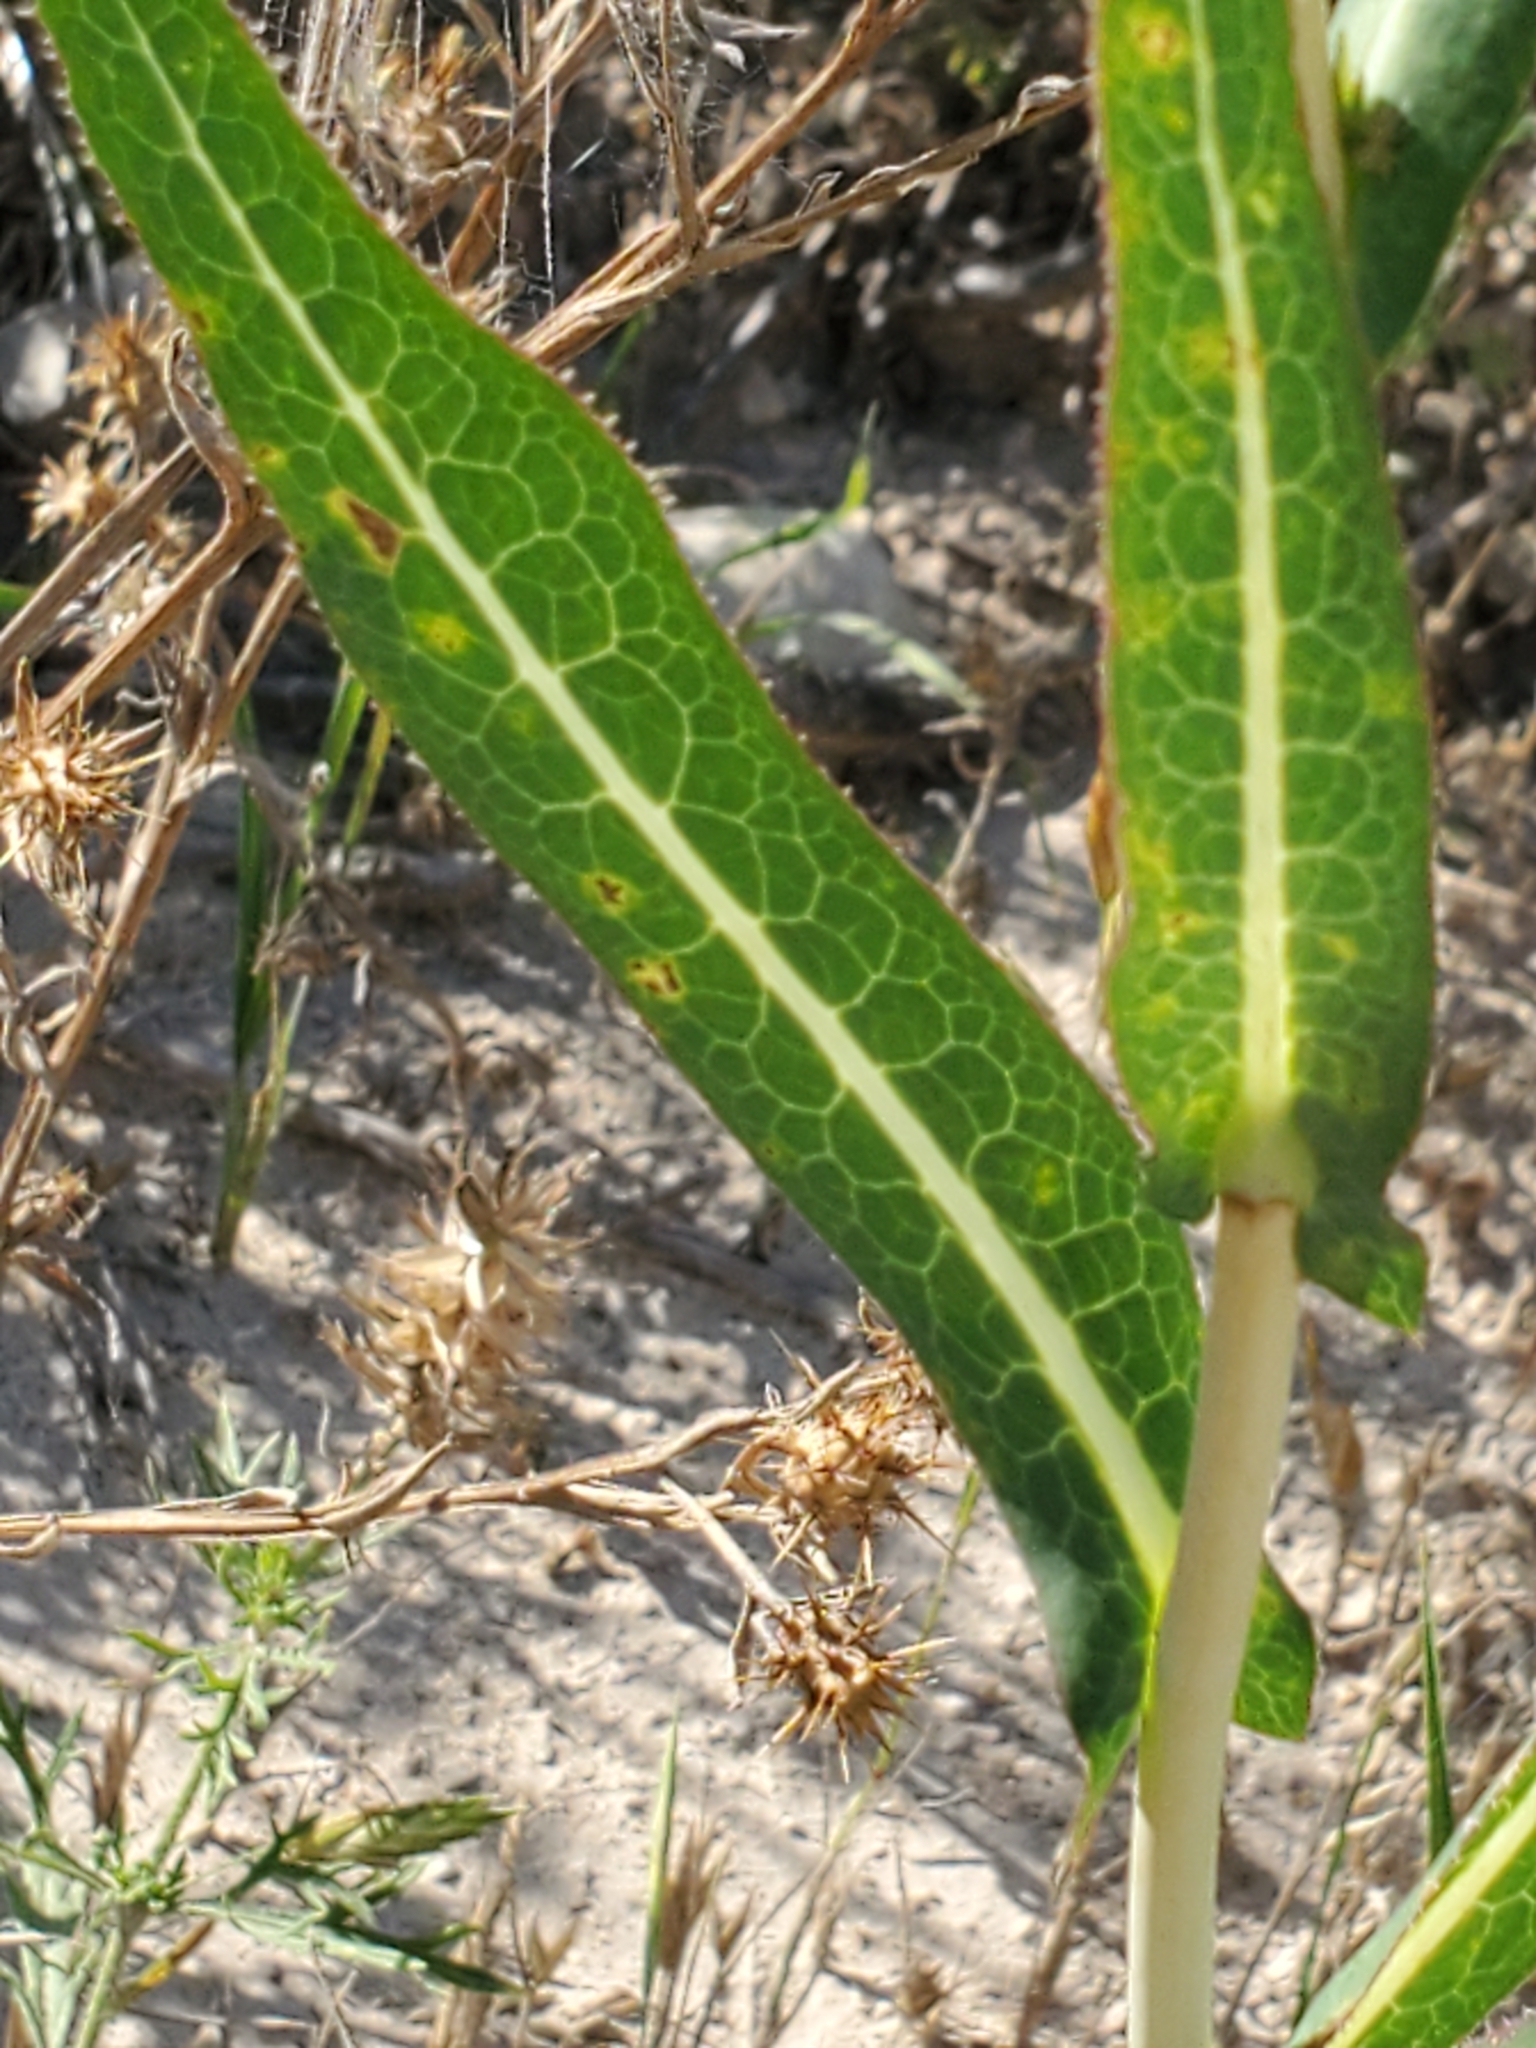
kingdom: Plantae
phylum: Tracheophyta
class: Magnoliopsida
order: Asterales
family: Asteraceae
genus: Lactuca
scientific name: Lactuca serriola
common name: Prickly lettuce
